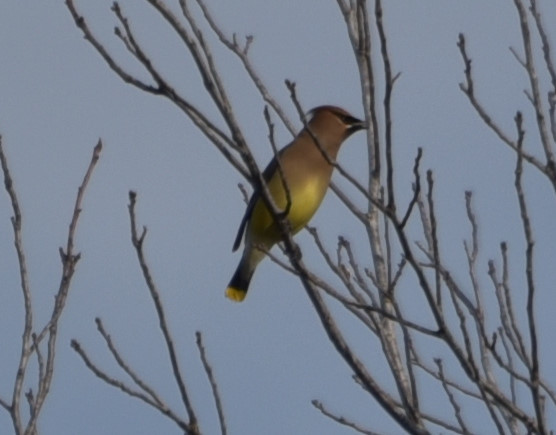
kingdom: Animalia
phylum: Chordata
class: Aves
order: Passeriformes
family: Bombycillidae
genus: Bombycilla
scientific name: Bombycilla cedrorum
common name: Cedar waxwing
